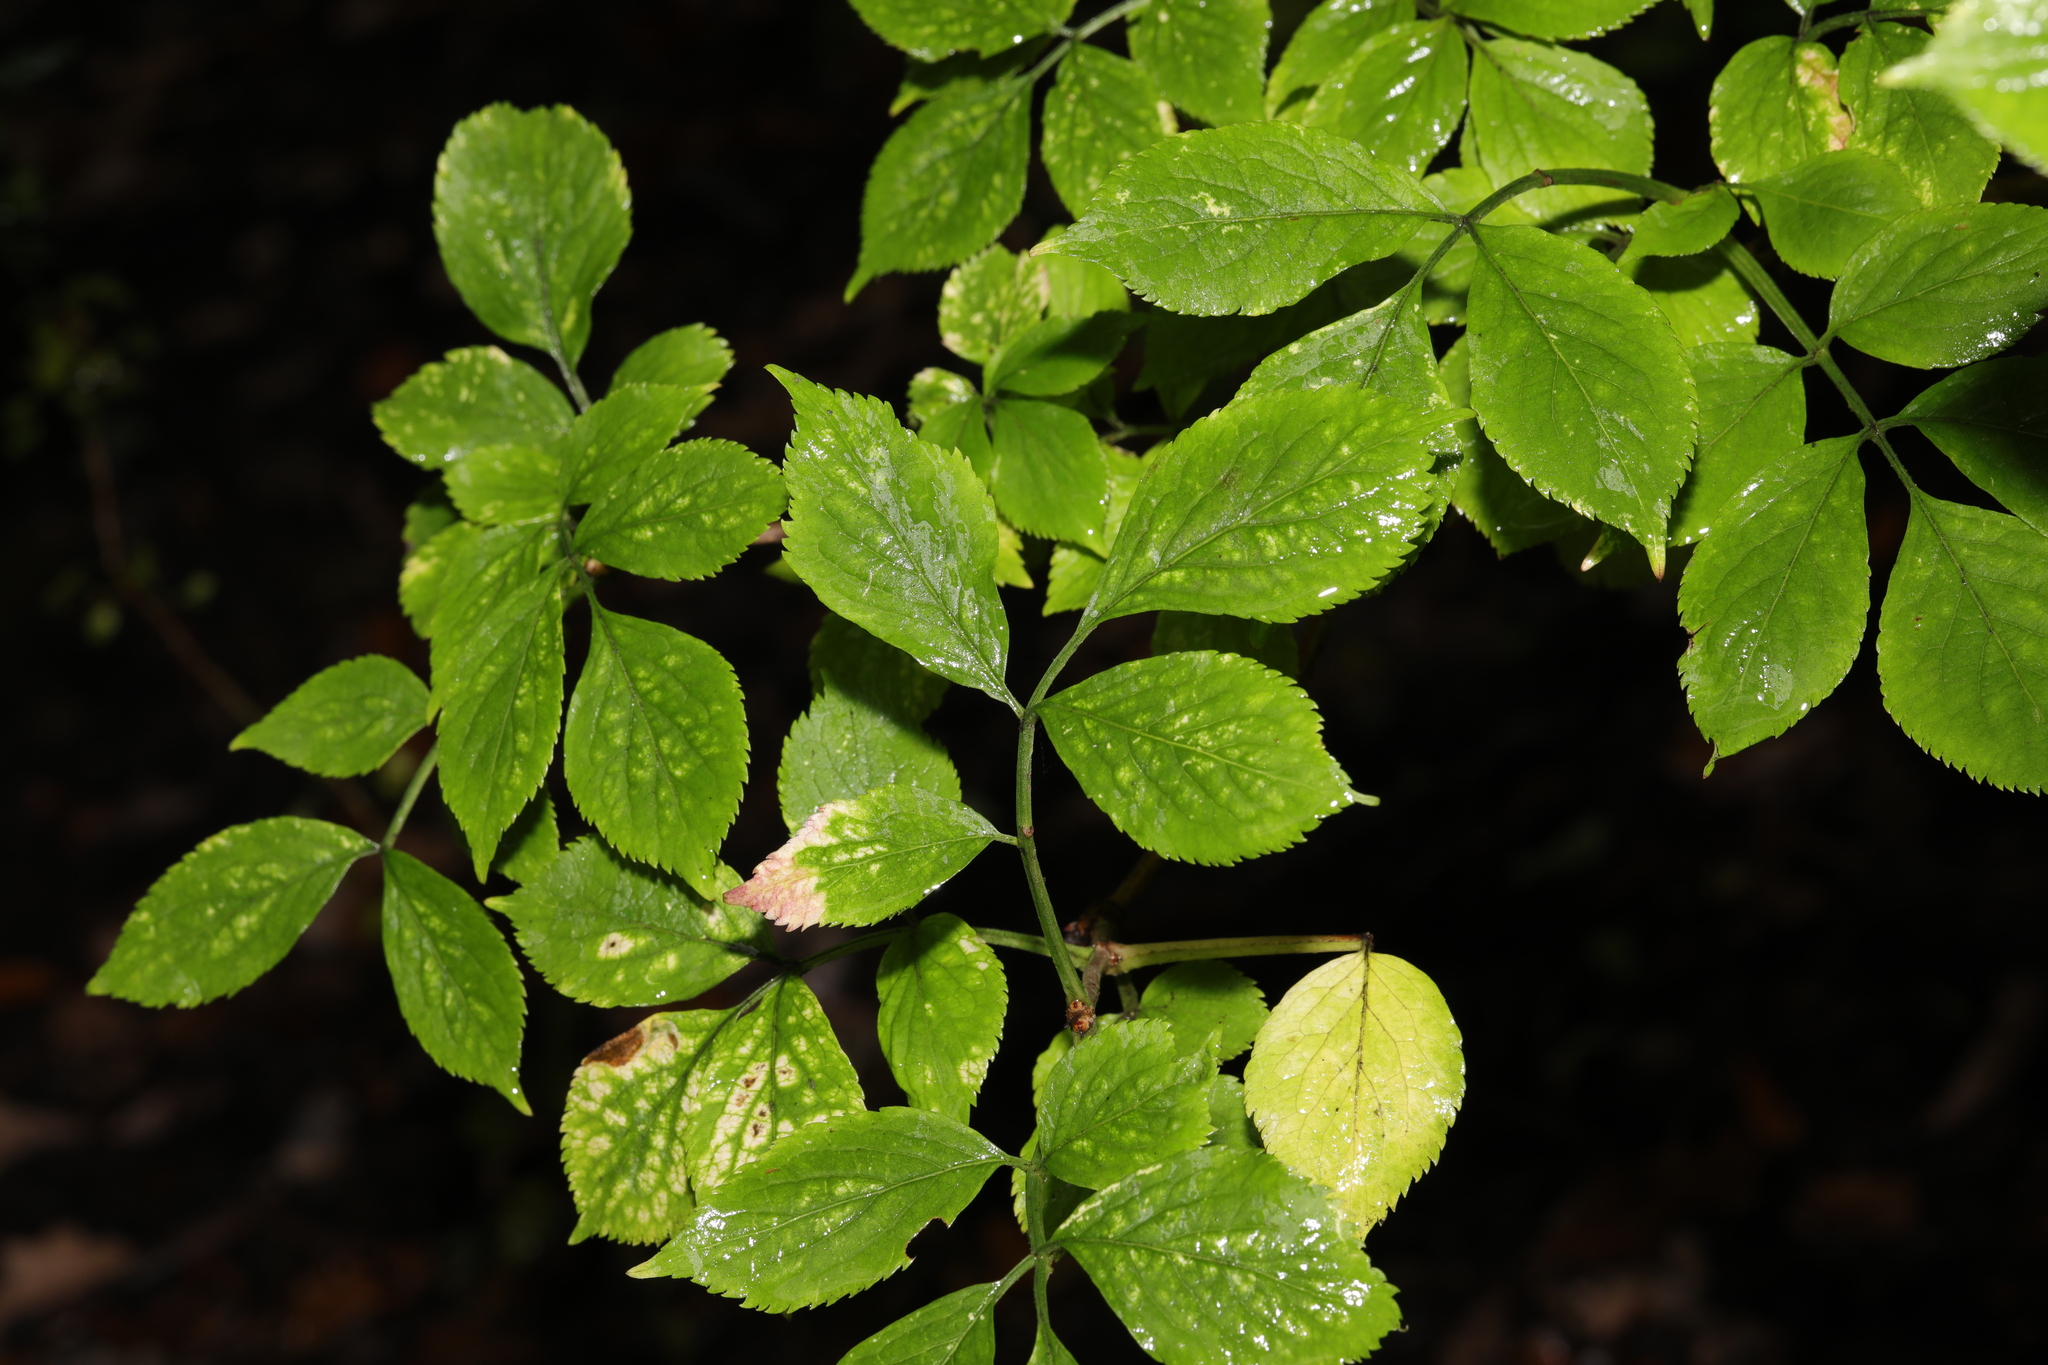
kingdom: Plantae
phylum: Tracheophyta
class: Magnoliopsida
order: Dipsacales
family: Viburnaceae
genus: Sambucus
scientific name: Sambucus nigra
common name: Elder
